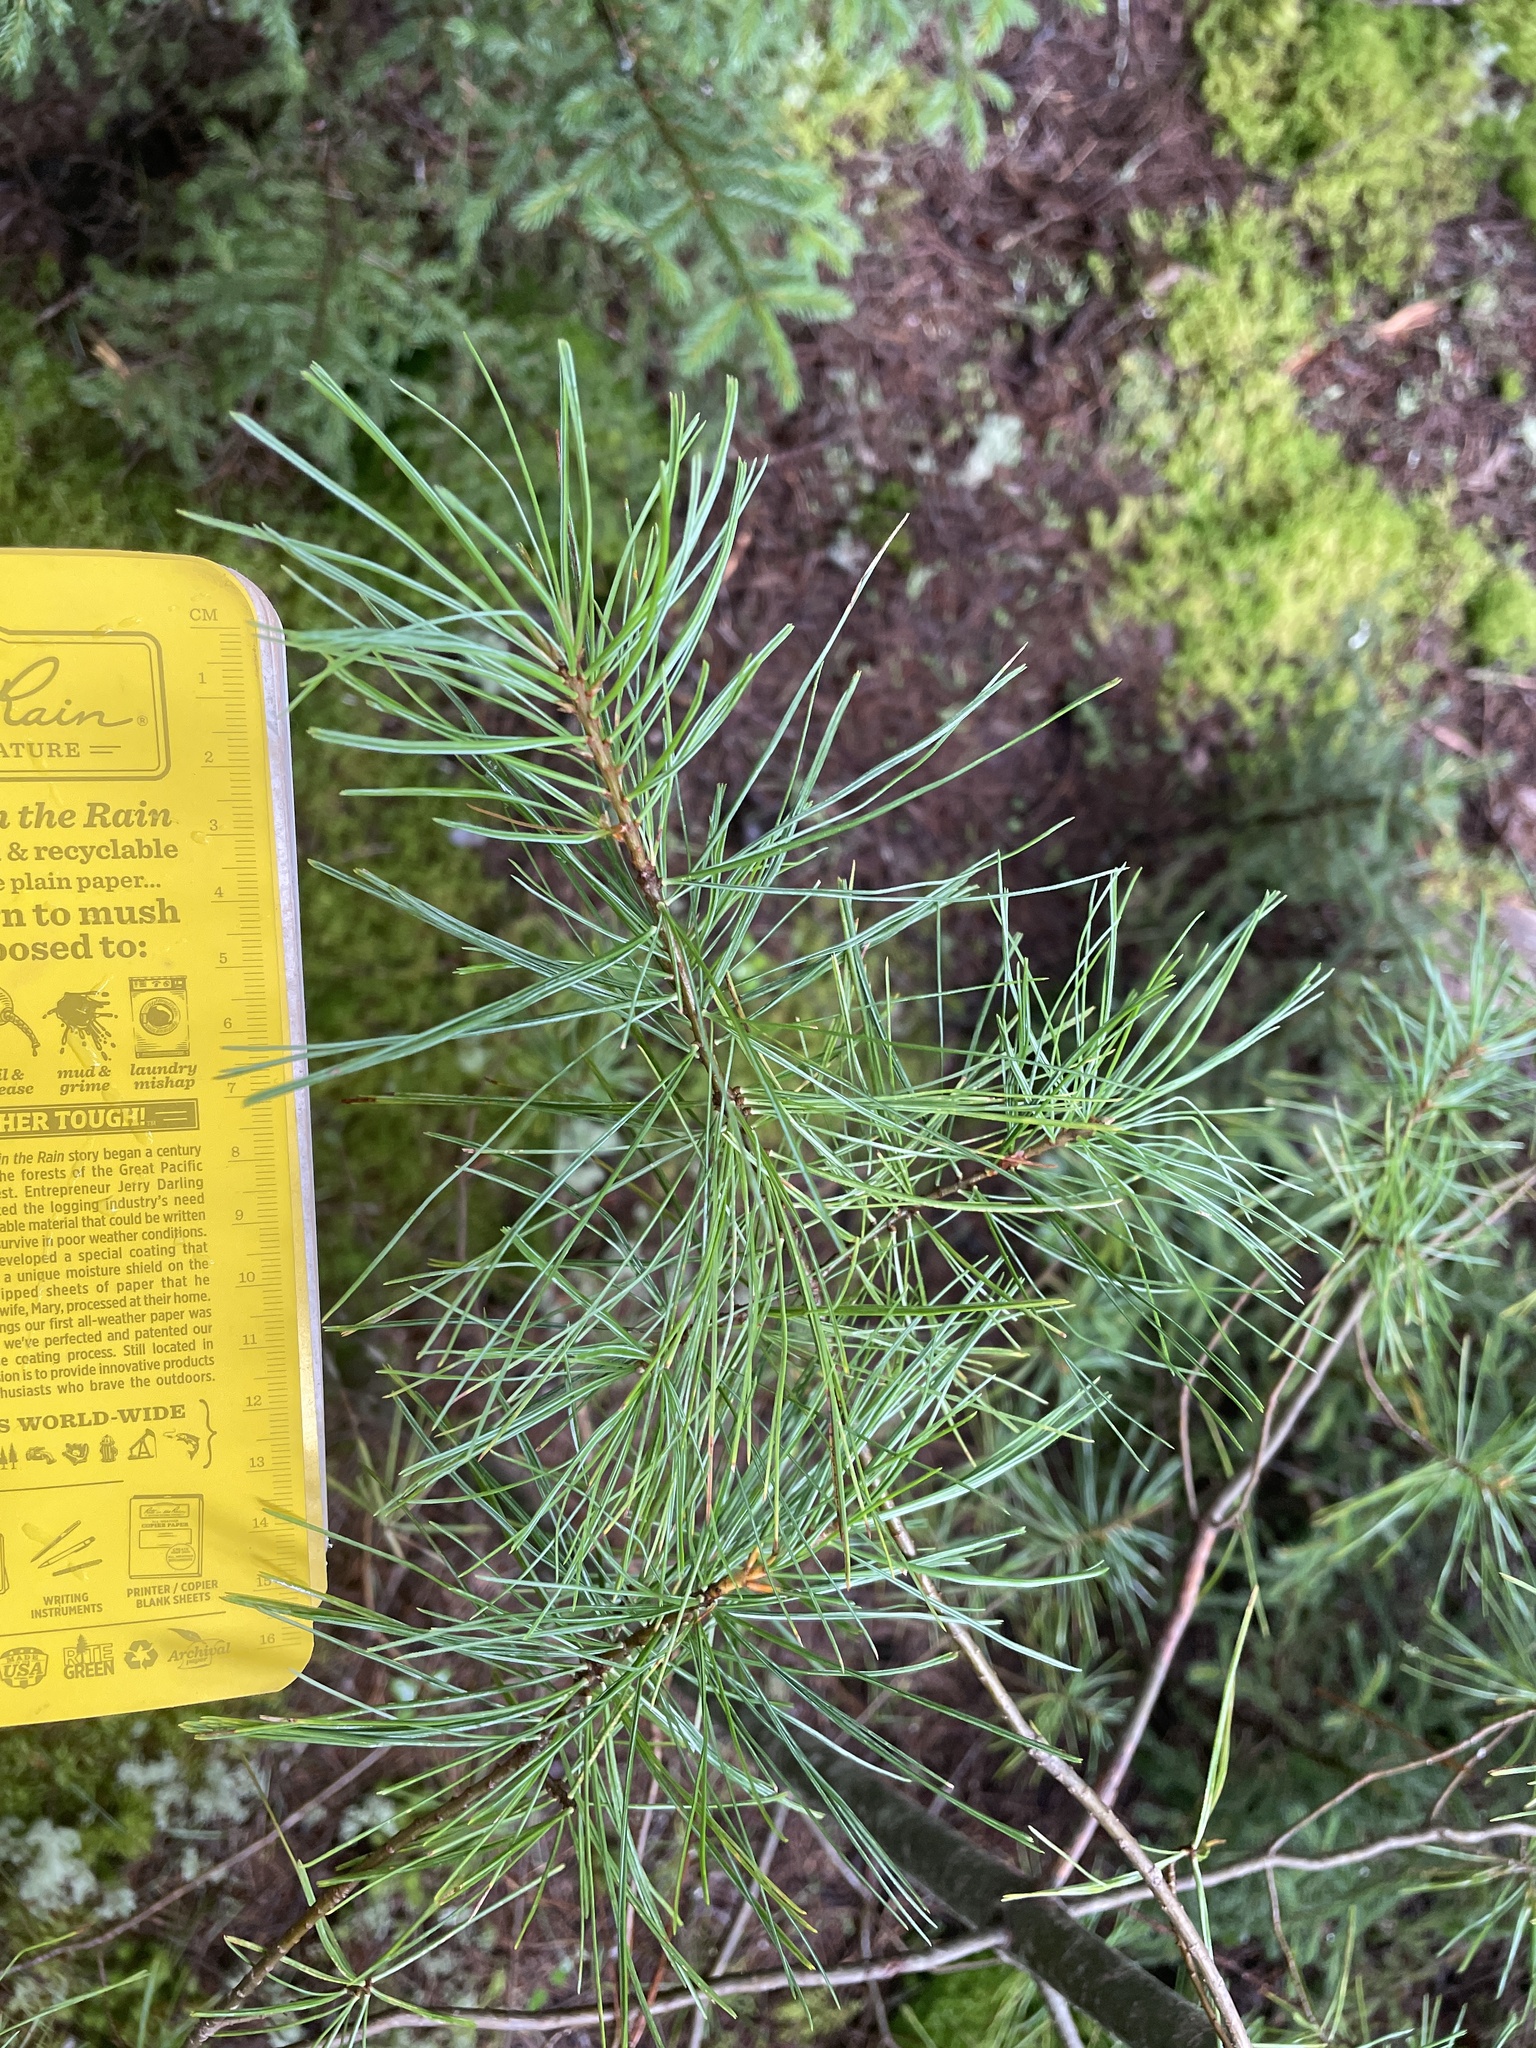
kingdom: Plantae
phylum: Tracheophyta
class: Pinopsida
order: Pinales
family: Pinaceae
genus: Pinus
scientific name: Pinus strobus
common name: Weymouth pine
